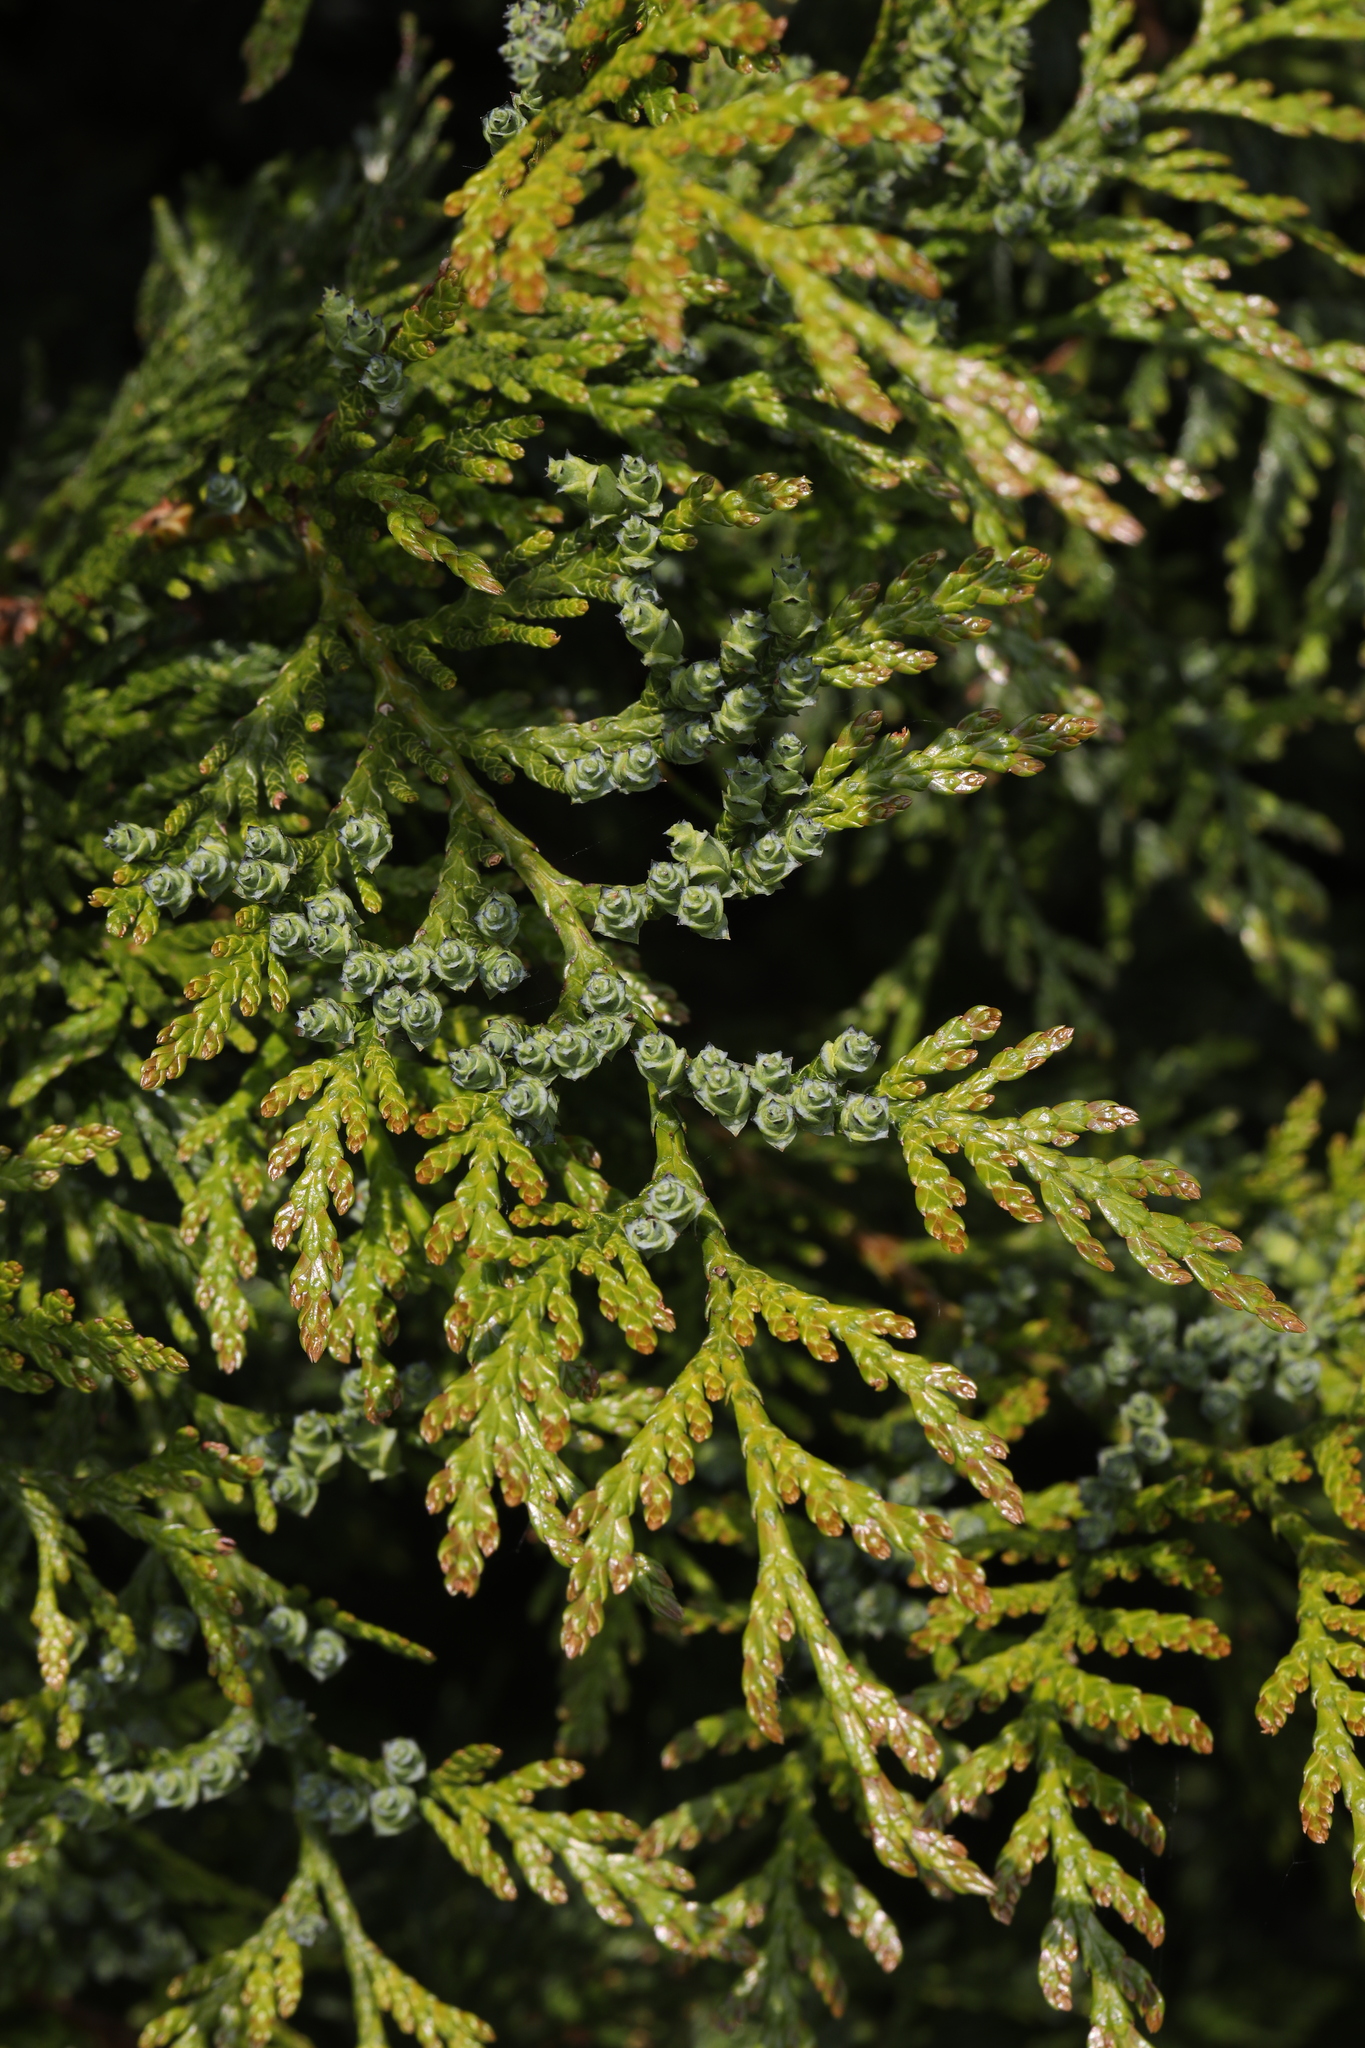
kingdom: Plantae
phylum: Tracheophyta
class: Pinopsida
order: Pinales
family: Cupressaceae
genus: Thuja
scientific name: Thuja
